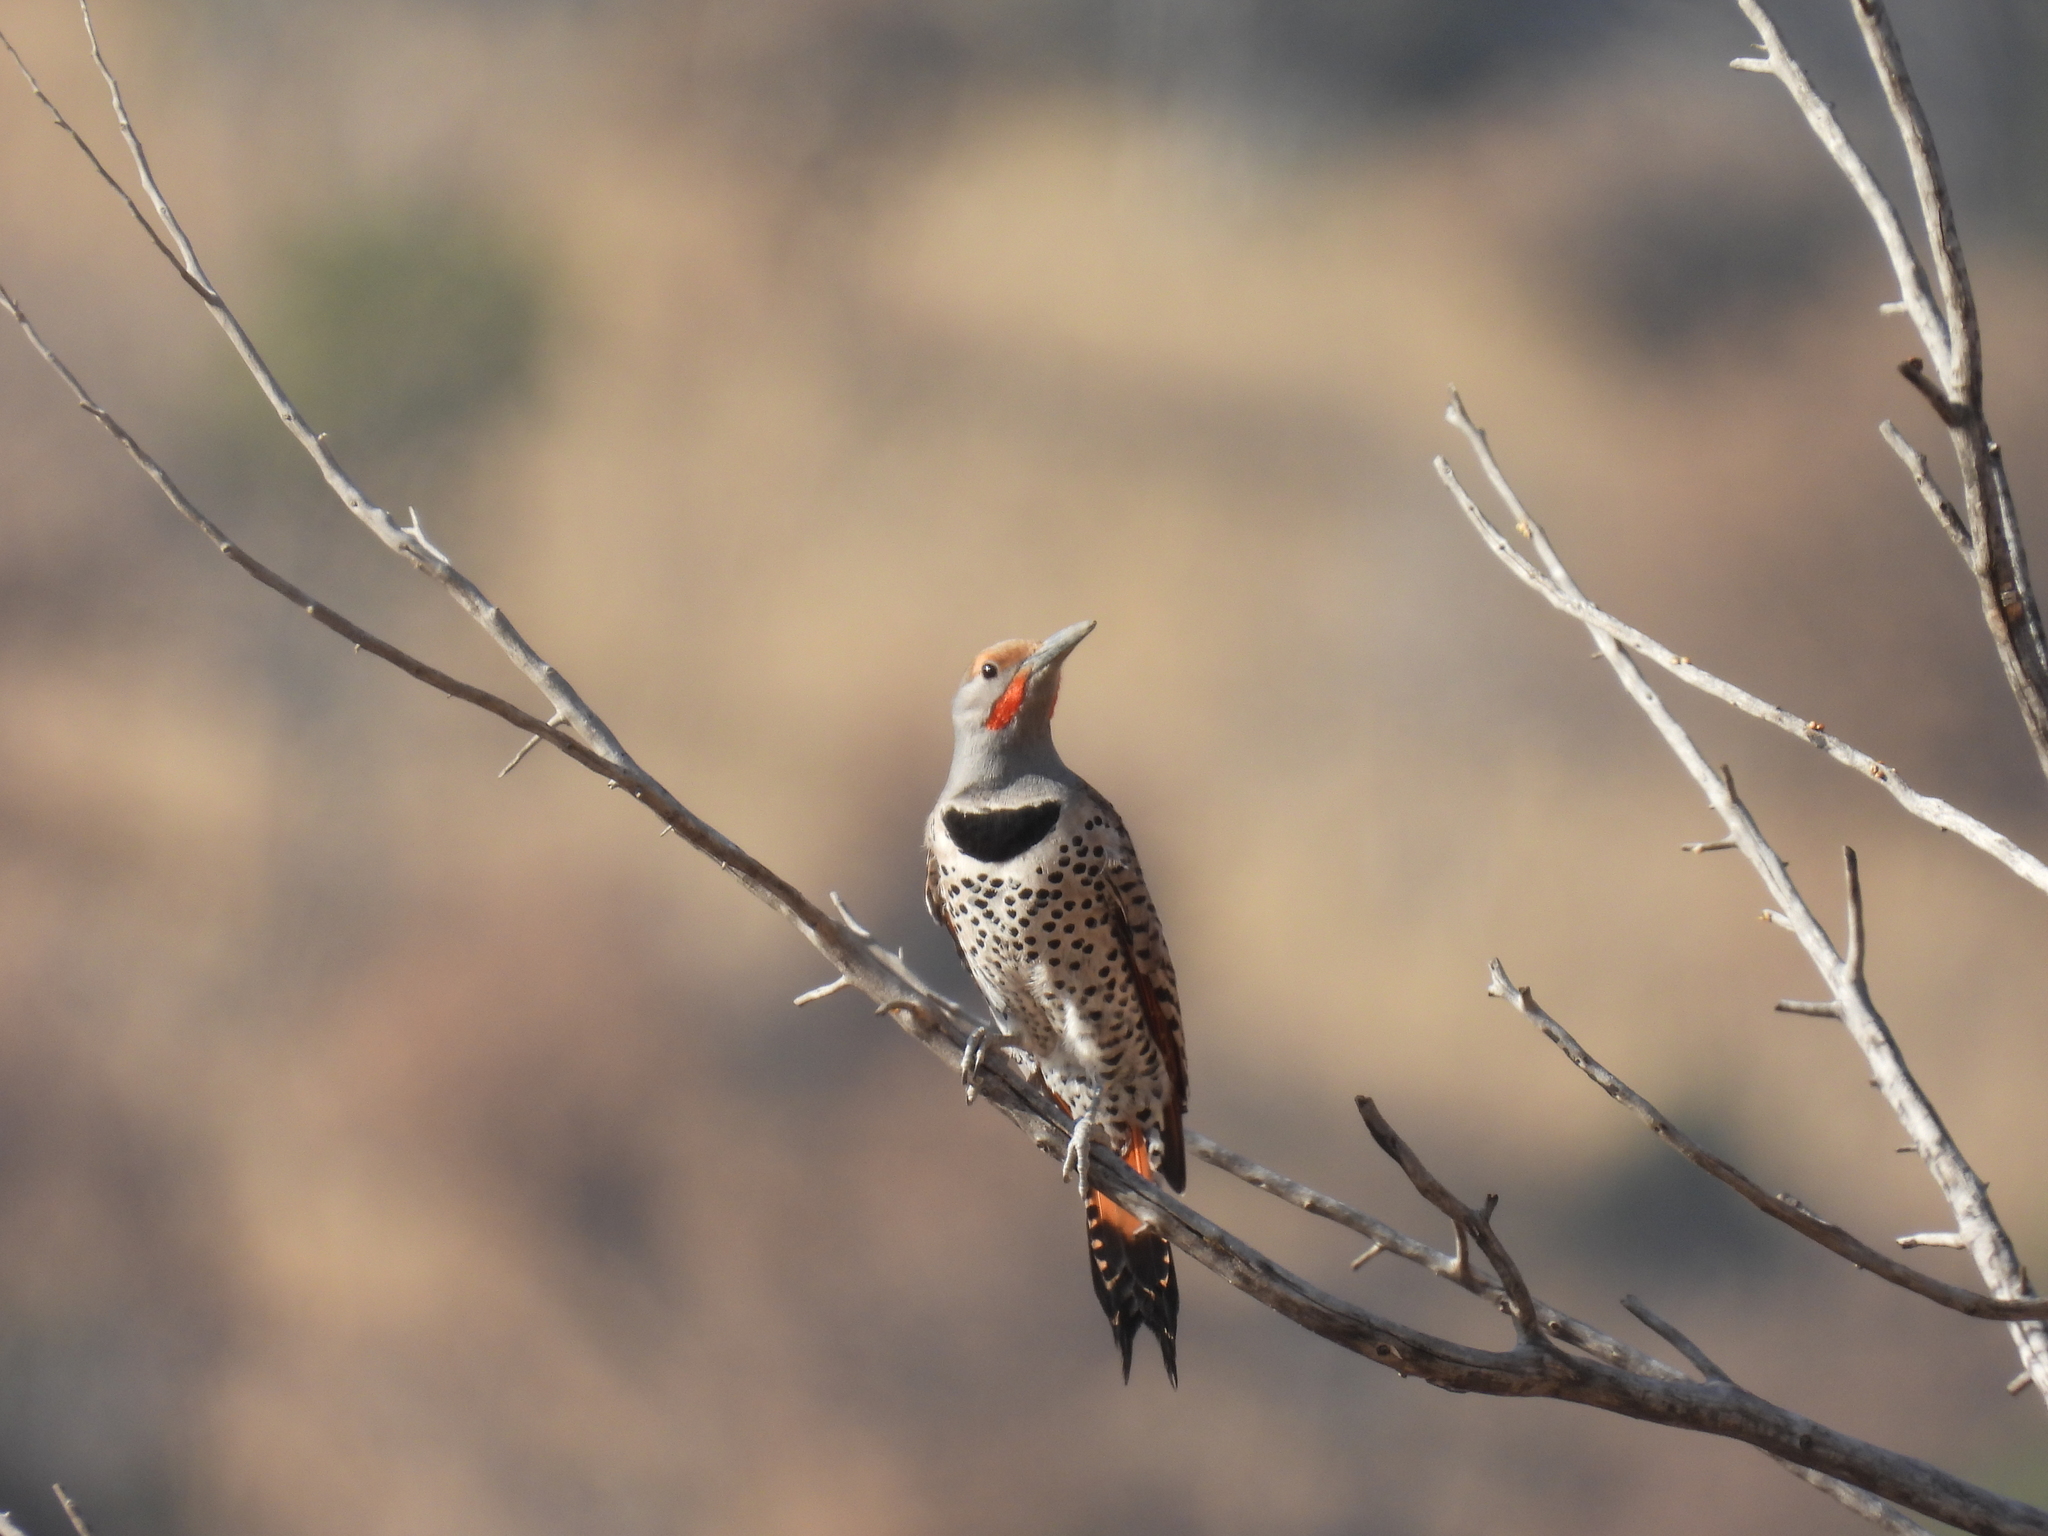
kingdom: Animalia
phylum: Chordata
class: Aves
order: Piciformes
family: Picidae
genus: Colaptes
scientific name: Colaptes auratus
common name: Northern flicker
